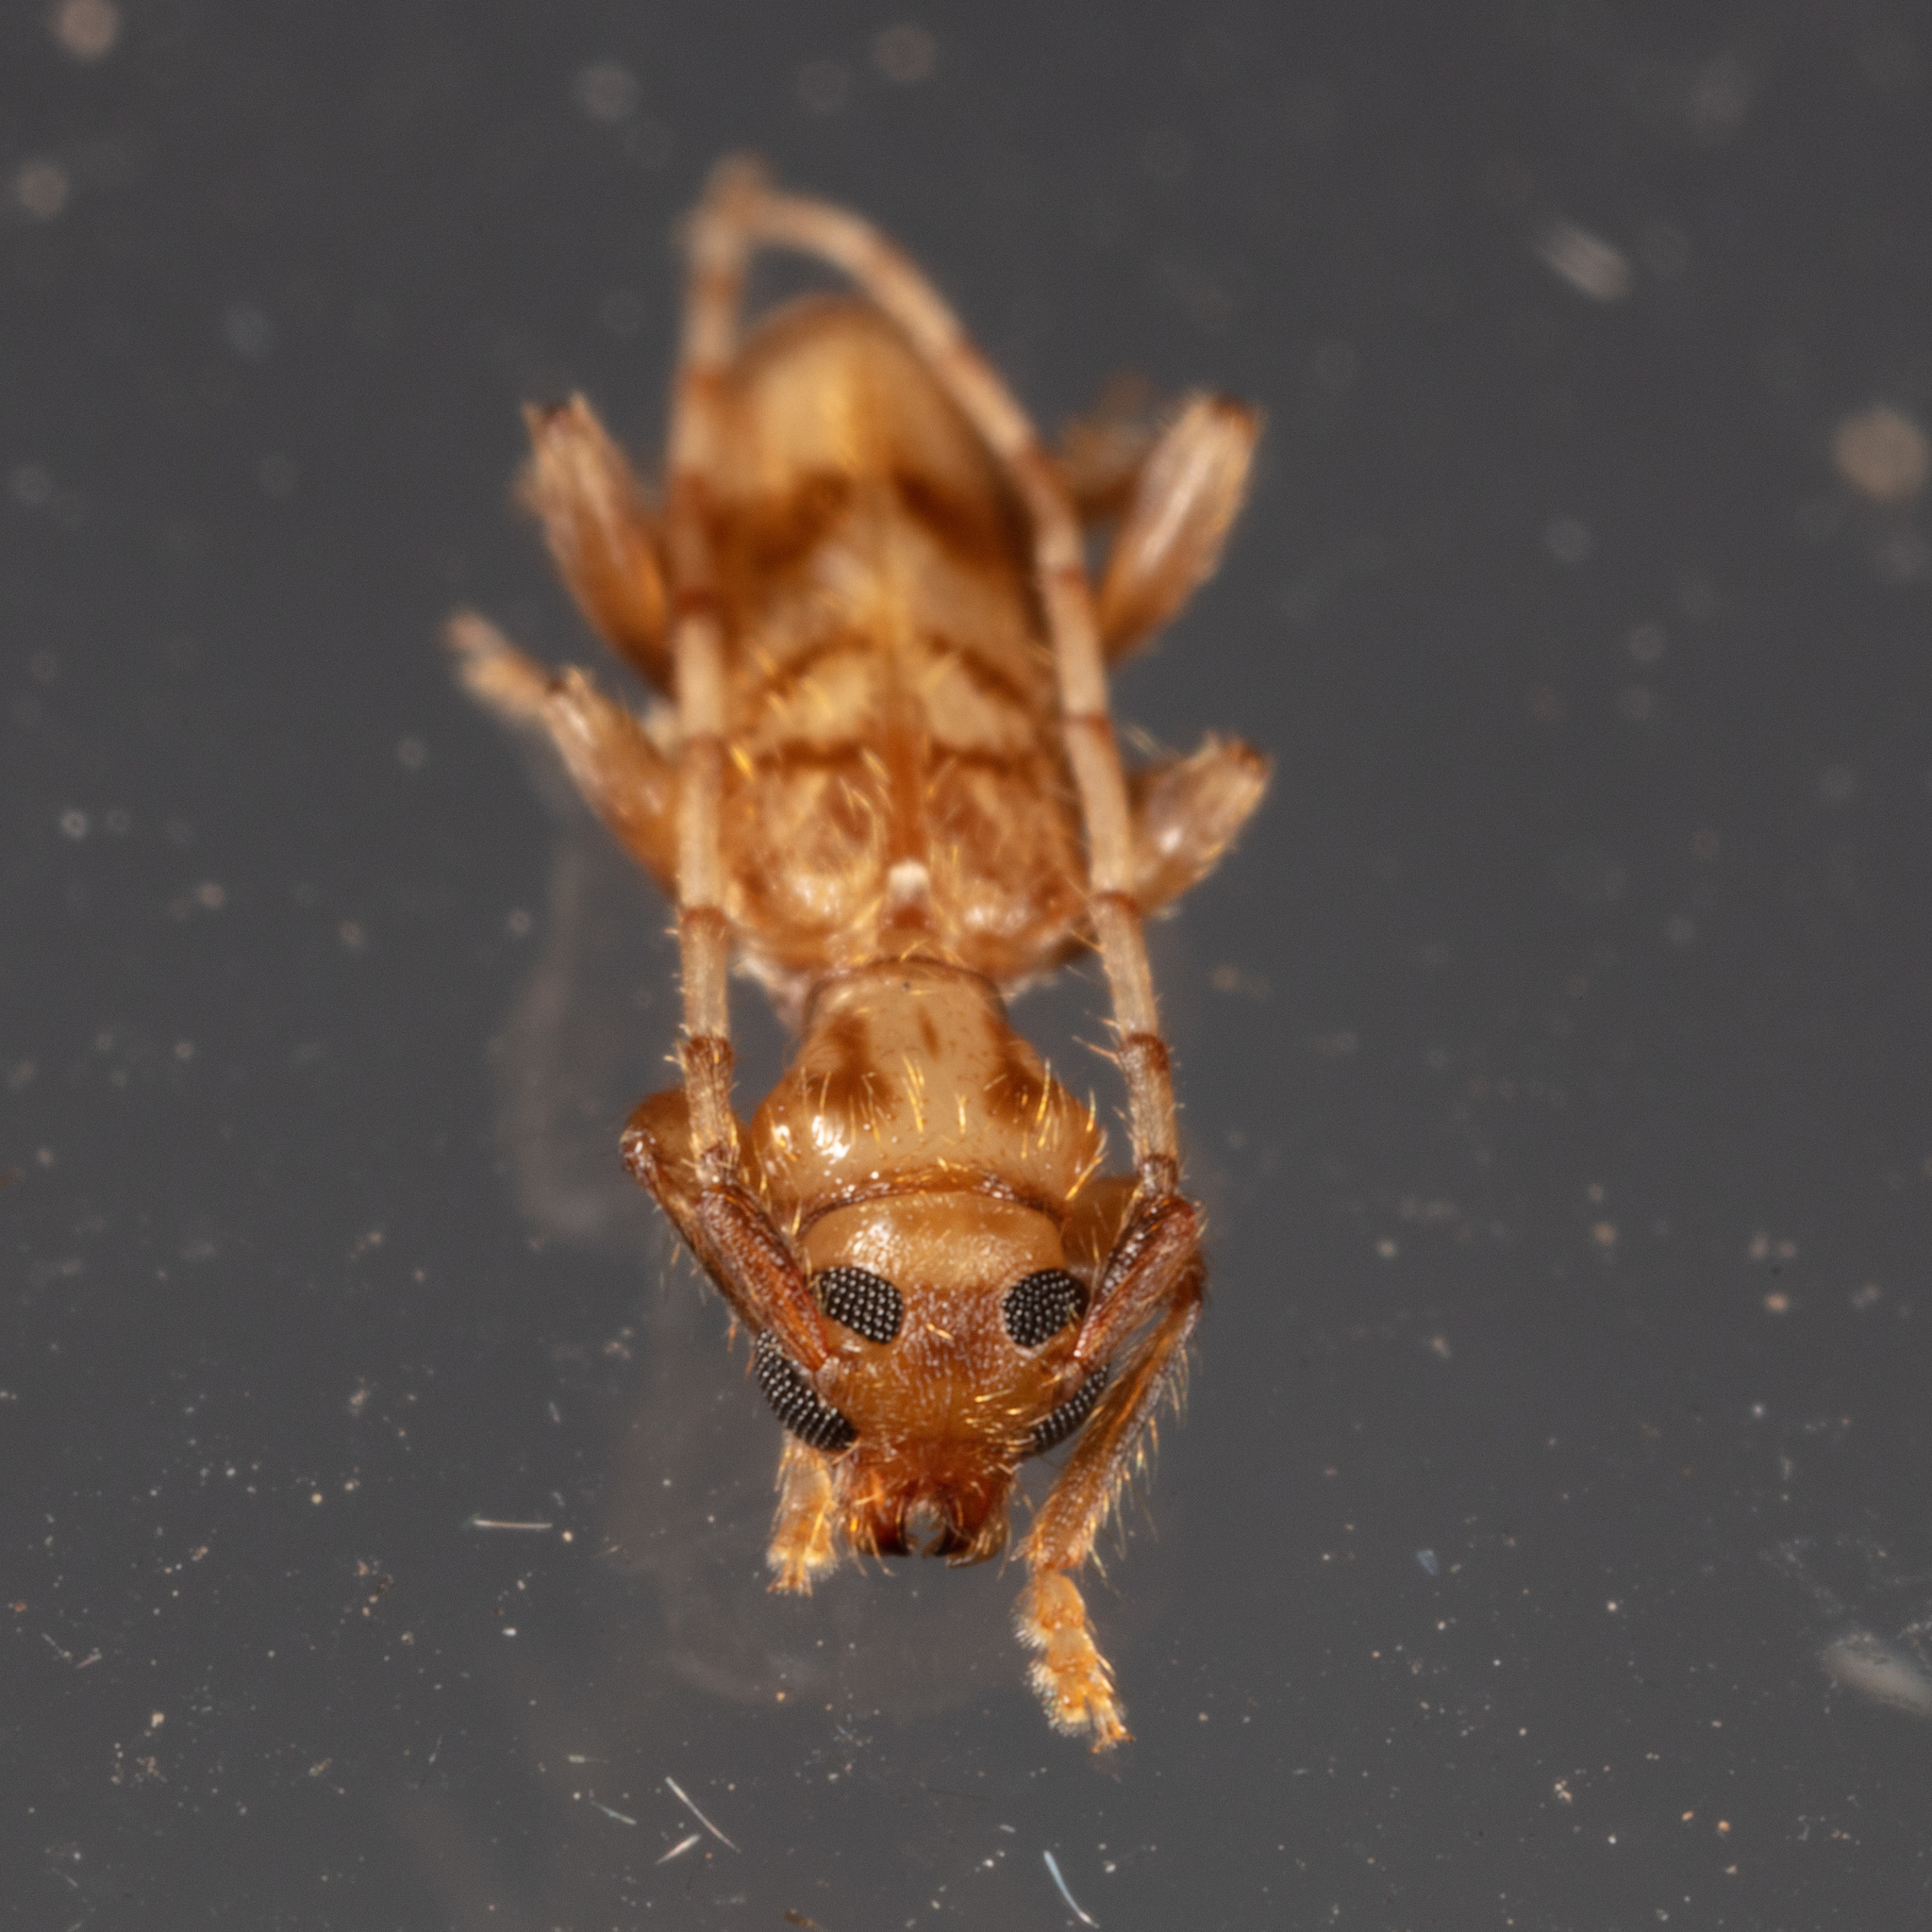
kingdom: Animalia
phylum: Arthropoda
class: Insecta
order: Coleoptera
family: Cerambycidae
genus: Obrium
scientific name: Obrium maculatum
